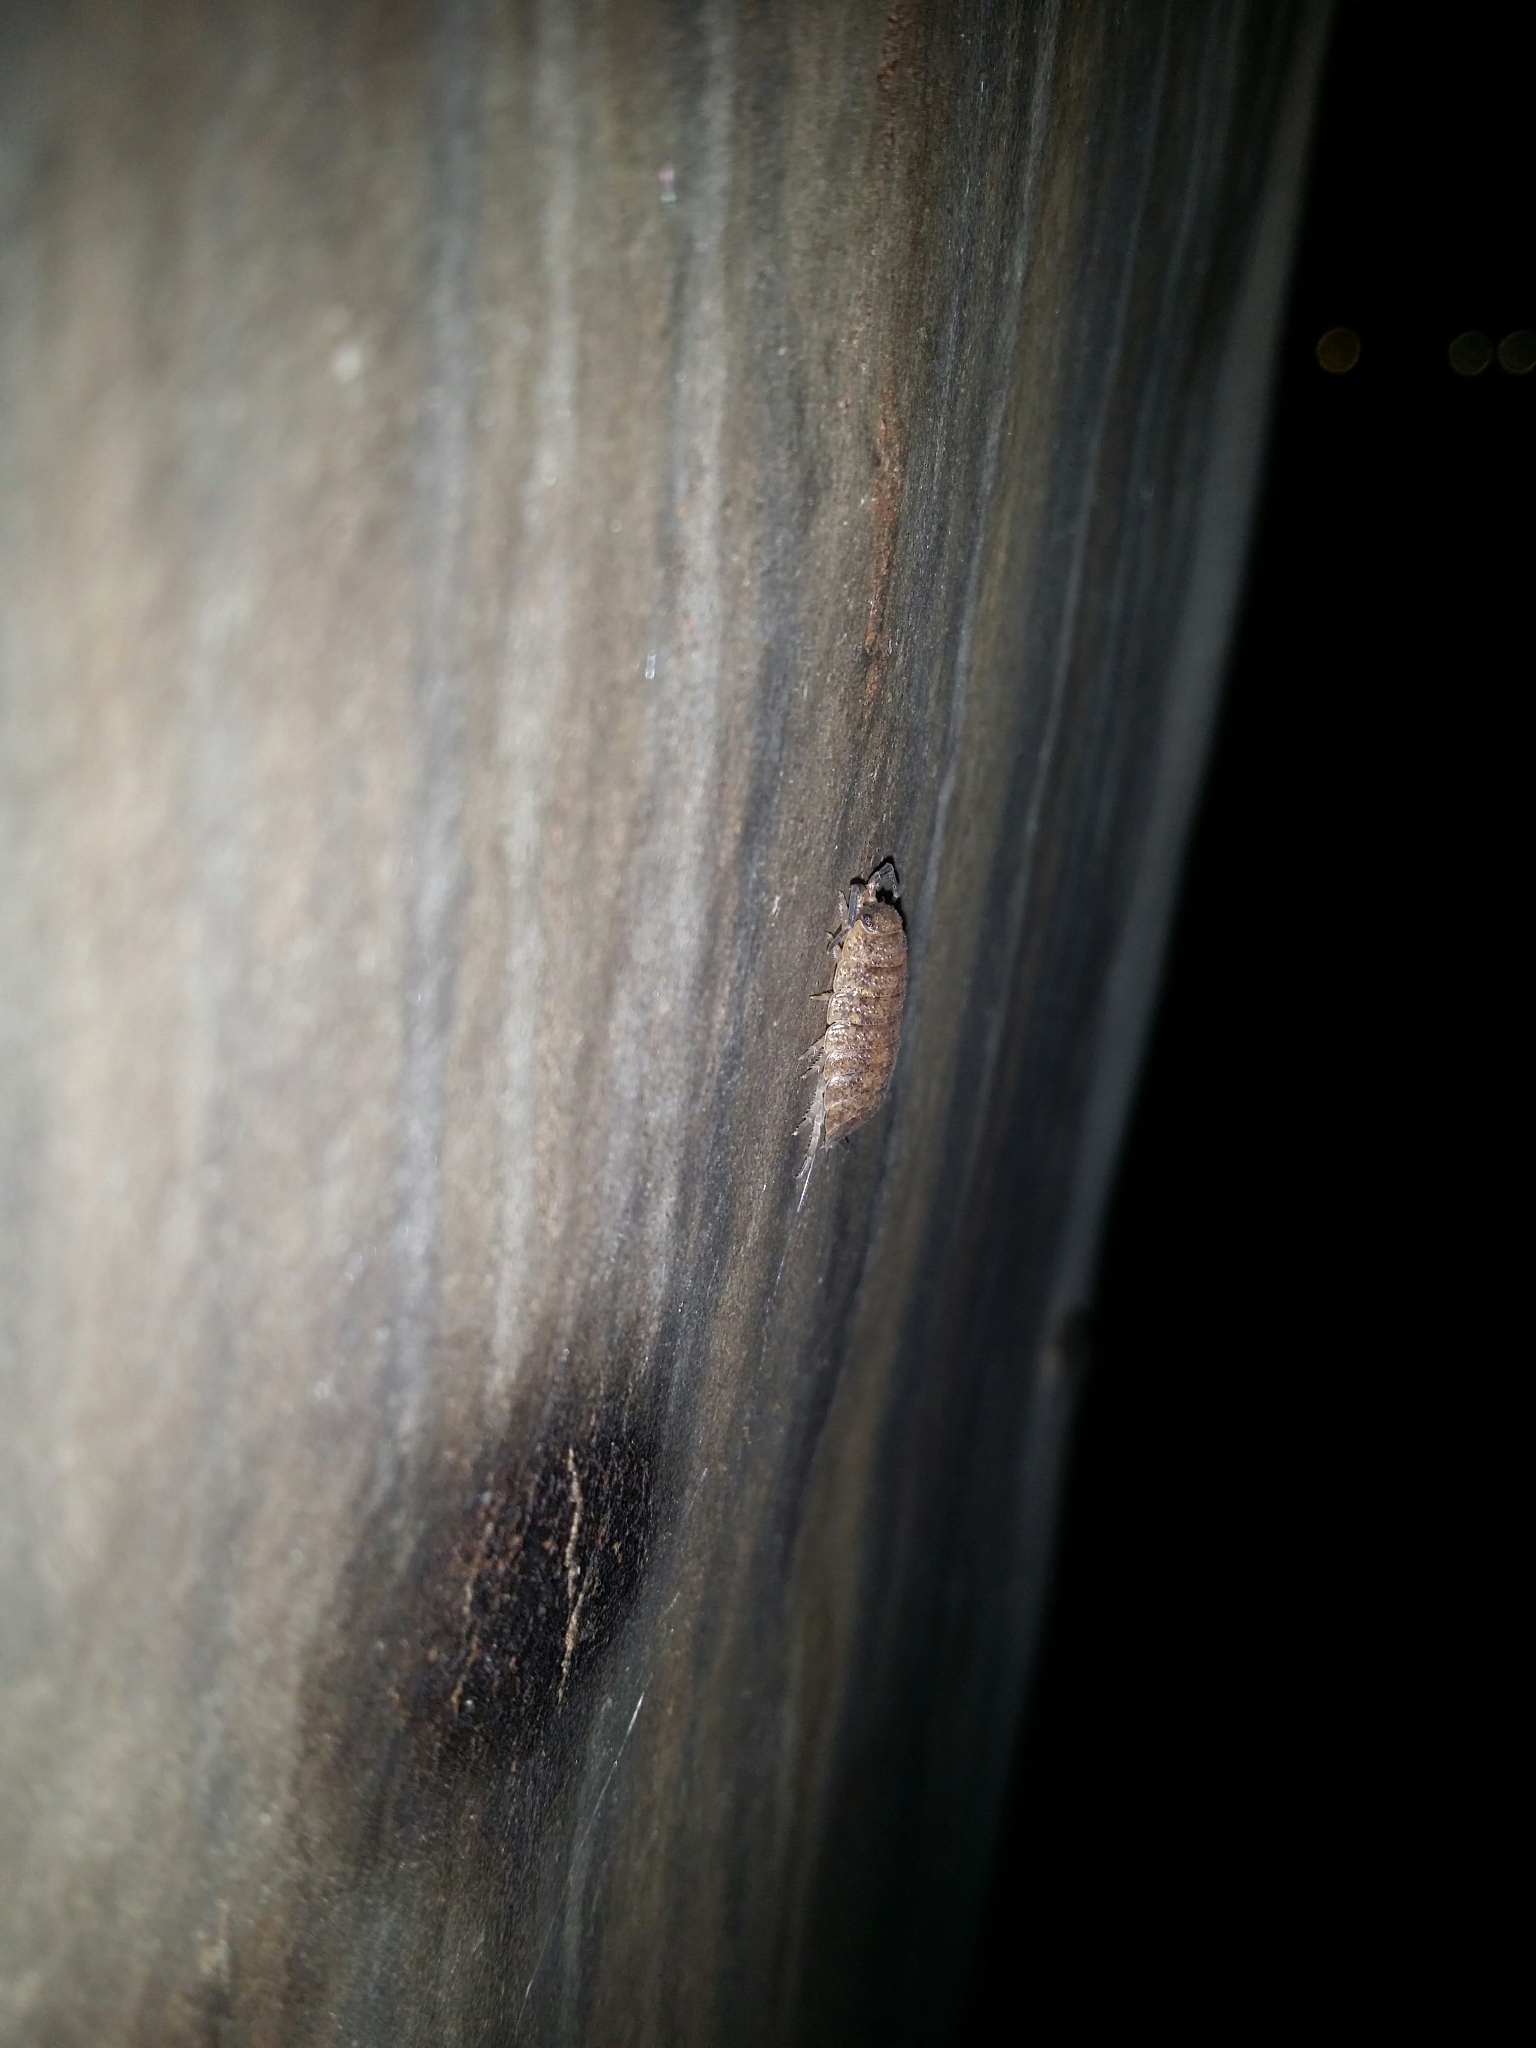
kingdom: Animalia
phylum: Arthropoda
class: Malacostraca
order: Isopoda
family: Porcellionidae
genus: Porcellio
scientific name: Porcellio scaber
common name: Common rough woodlouse
